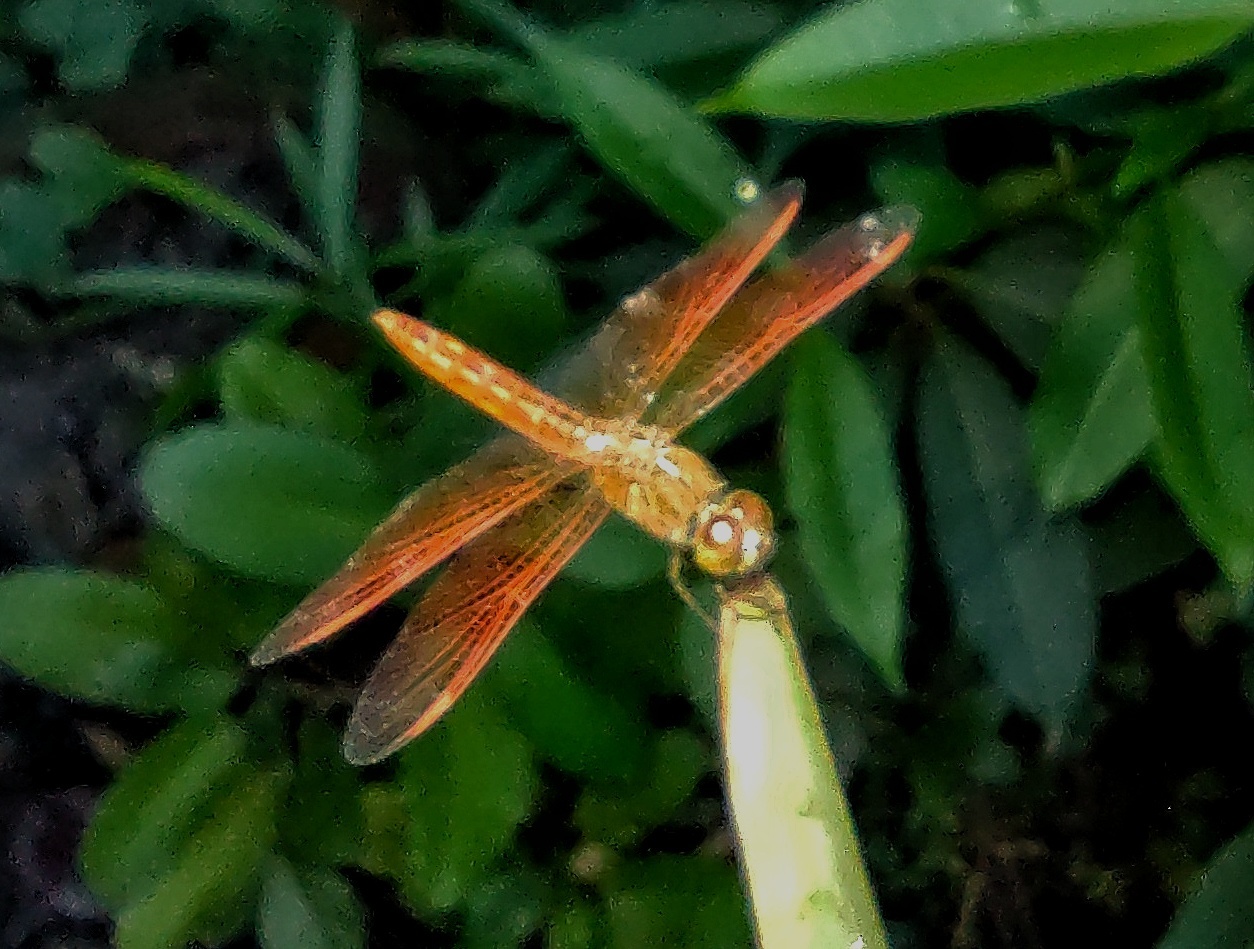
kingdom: Animalia
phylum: Arthropoda
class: Insecta
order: Odonata
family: Libellulidae
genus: Brachythemis
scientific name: Brachythemis contaminata
